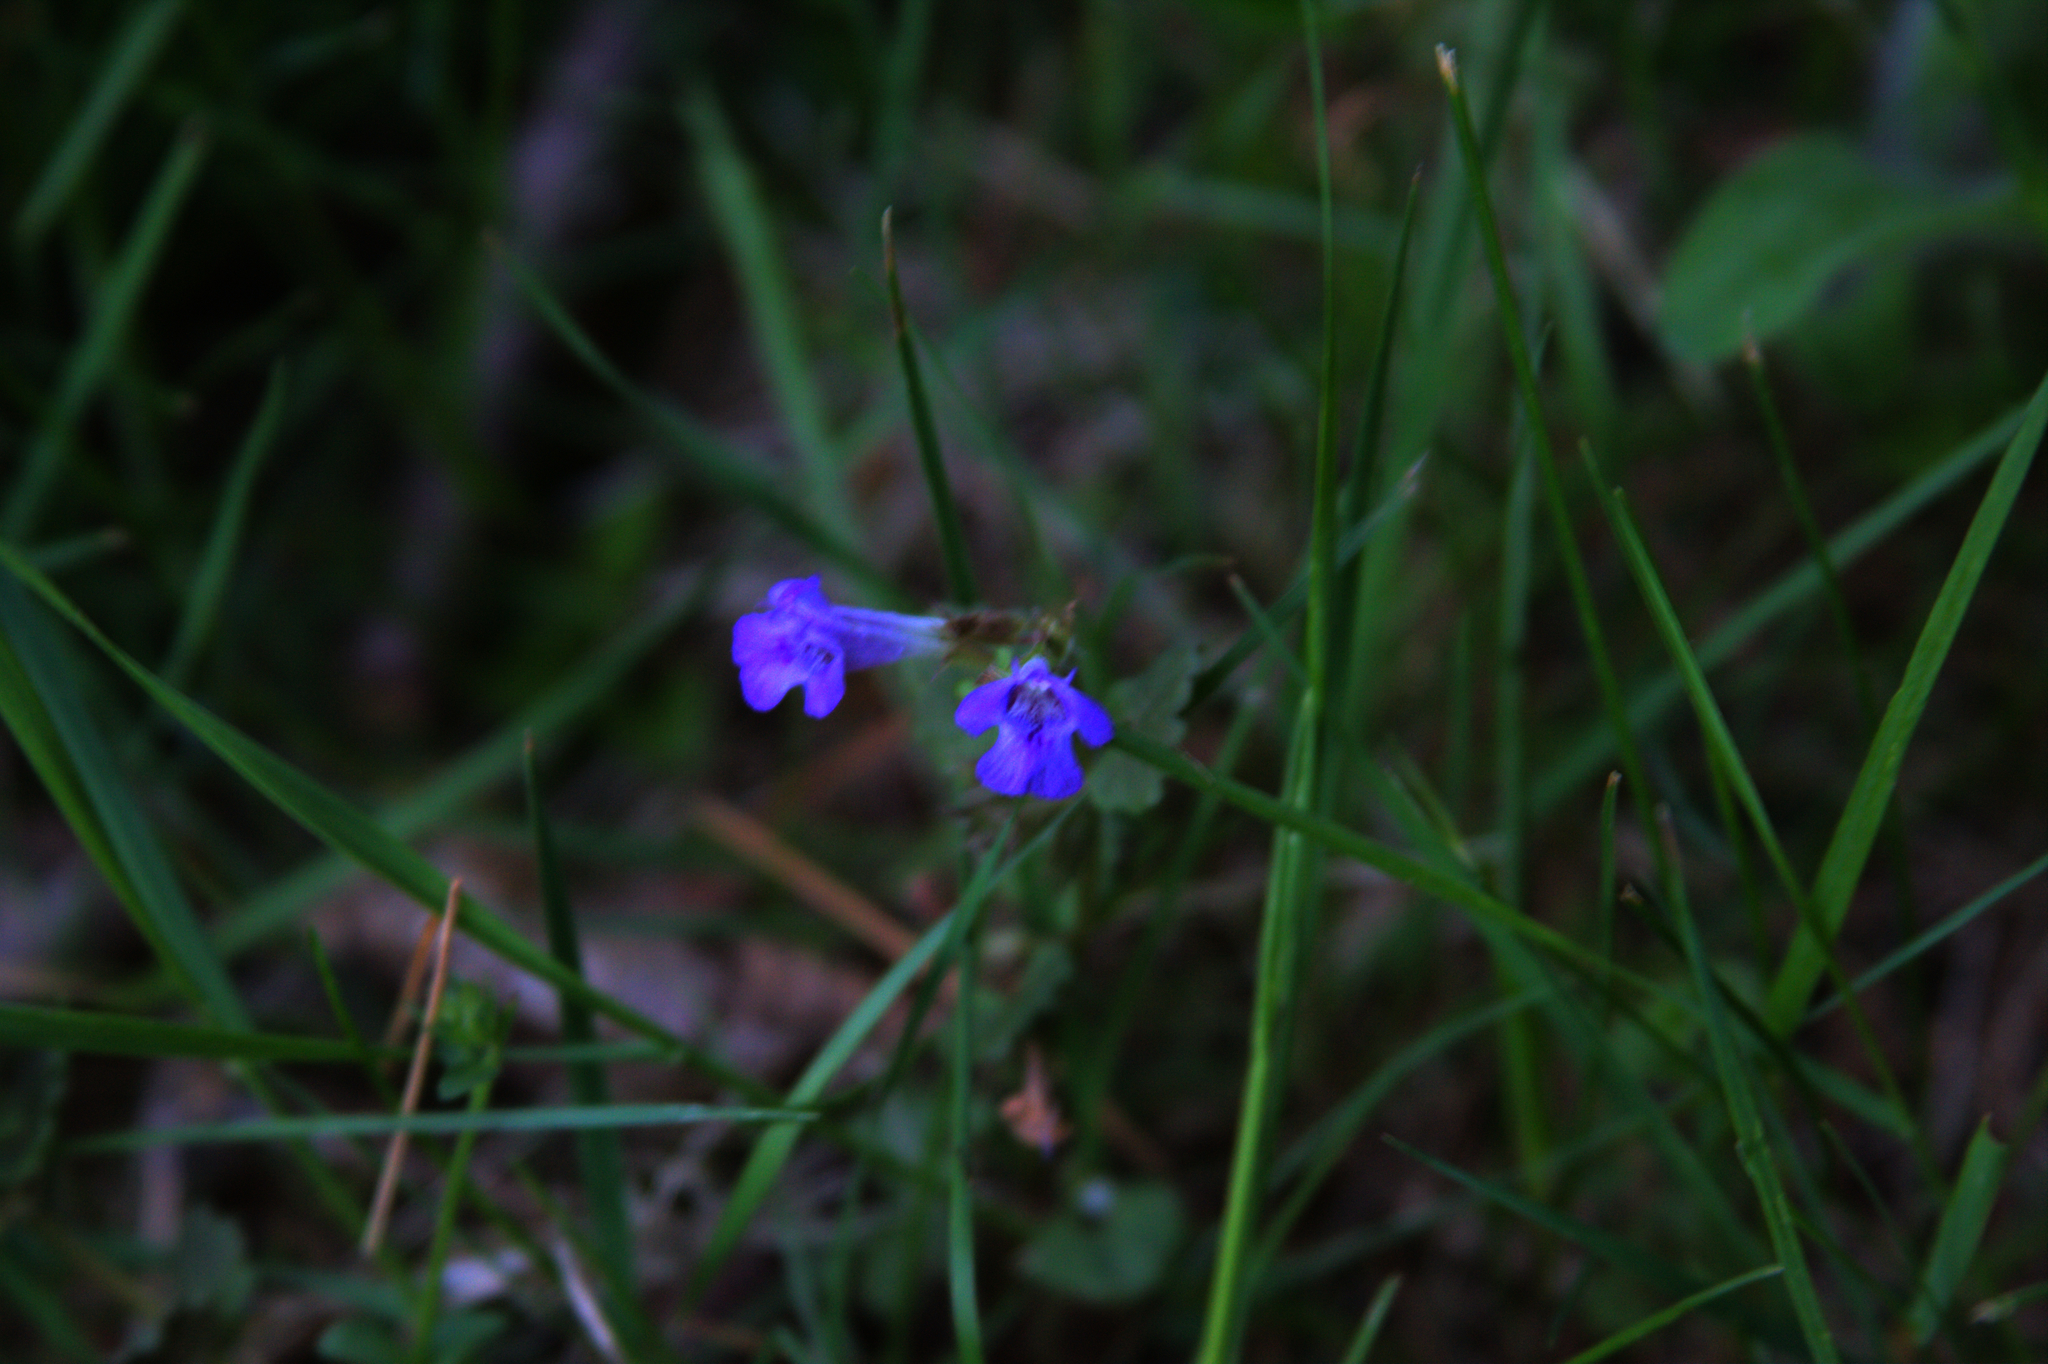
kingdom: Plantae
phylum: Tracheophyta
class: Magnoliopsida
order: Lamiales
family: Lamiaceae
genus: Glechoma
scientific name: Glechoma hederacea
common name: Ground ivy
